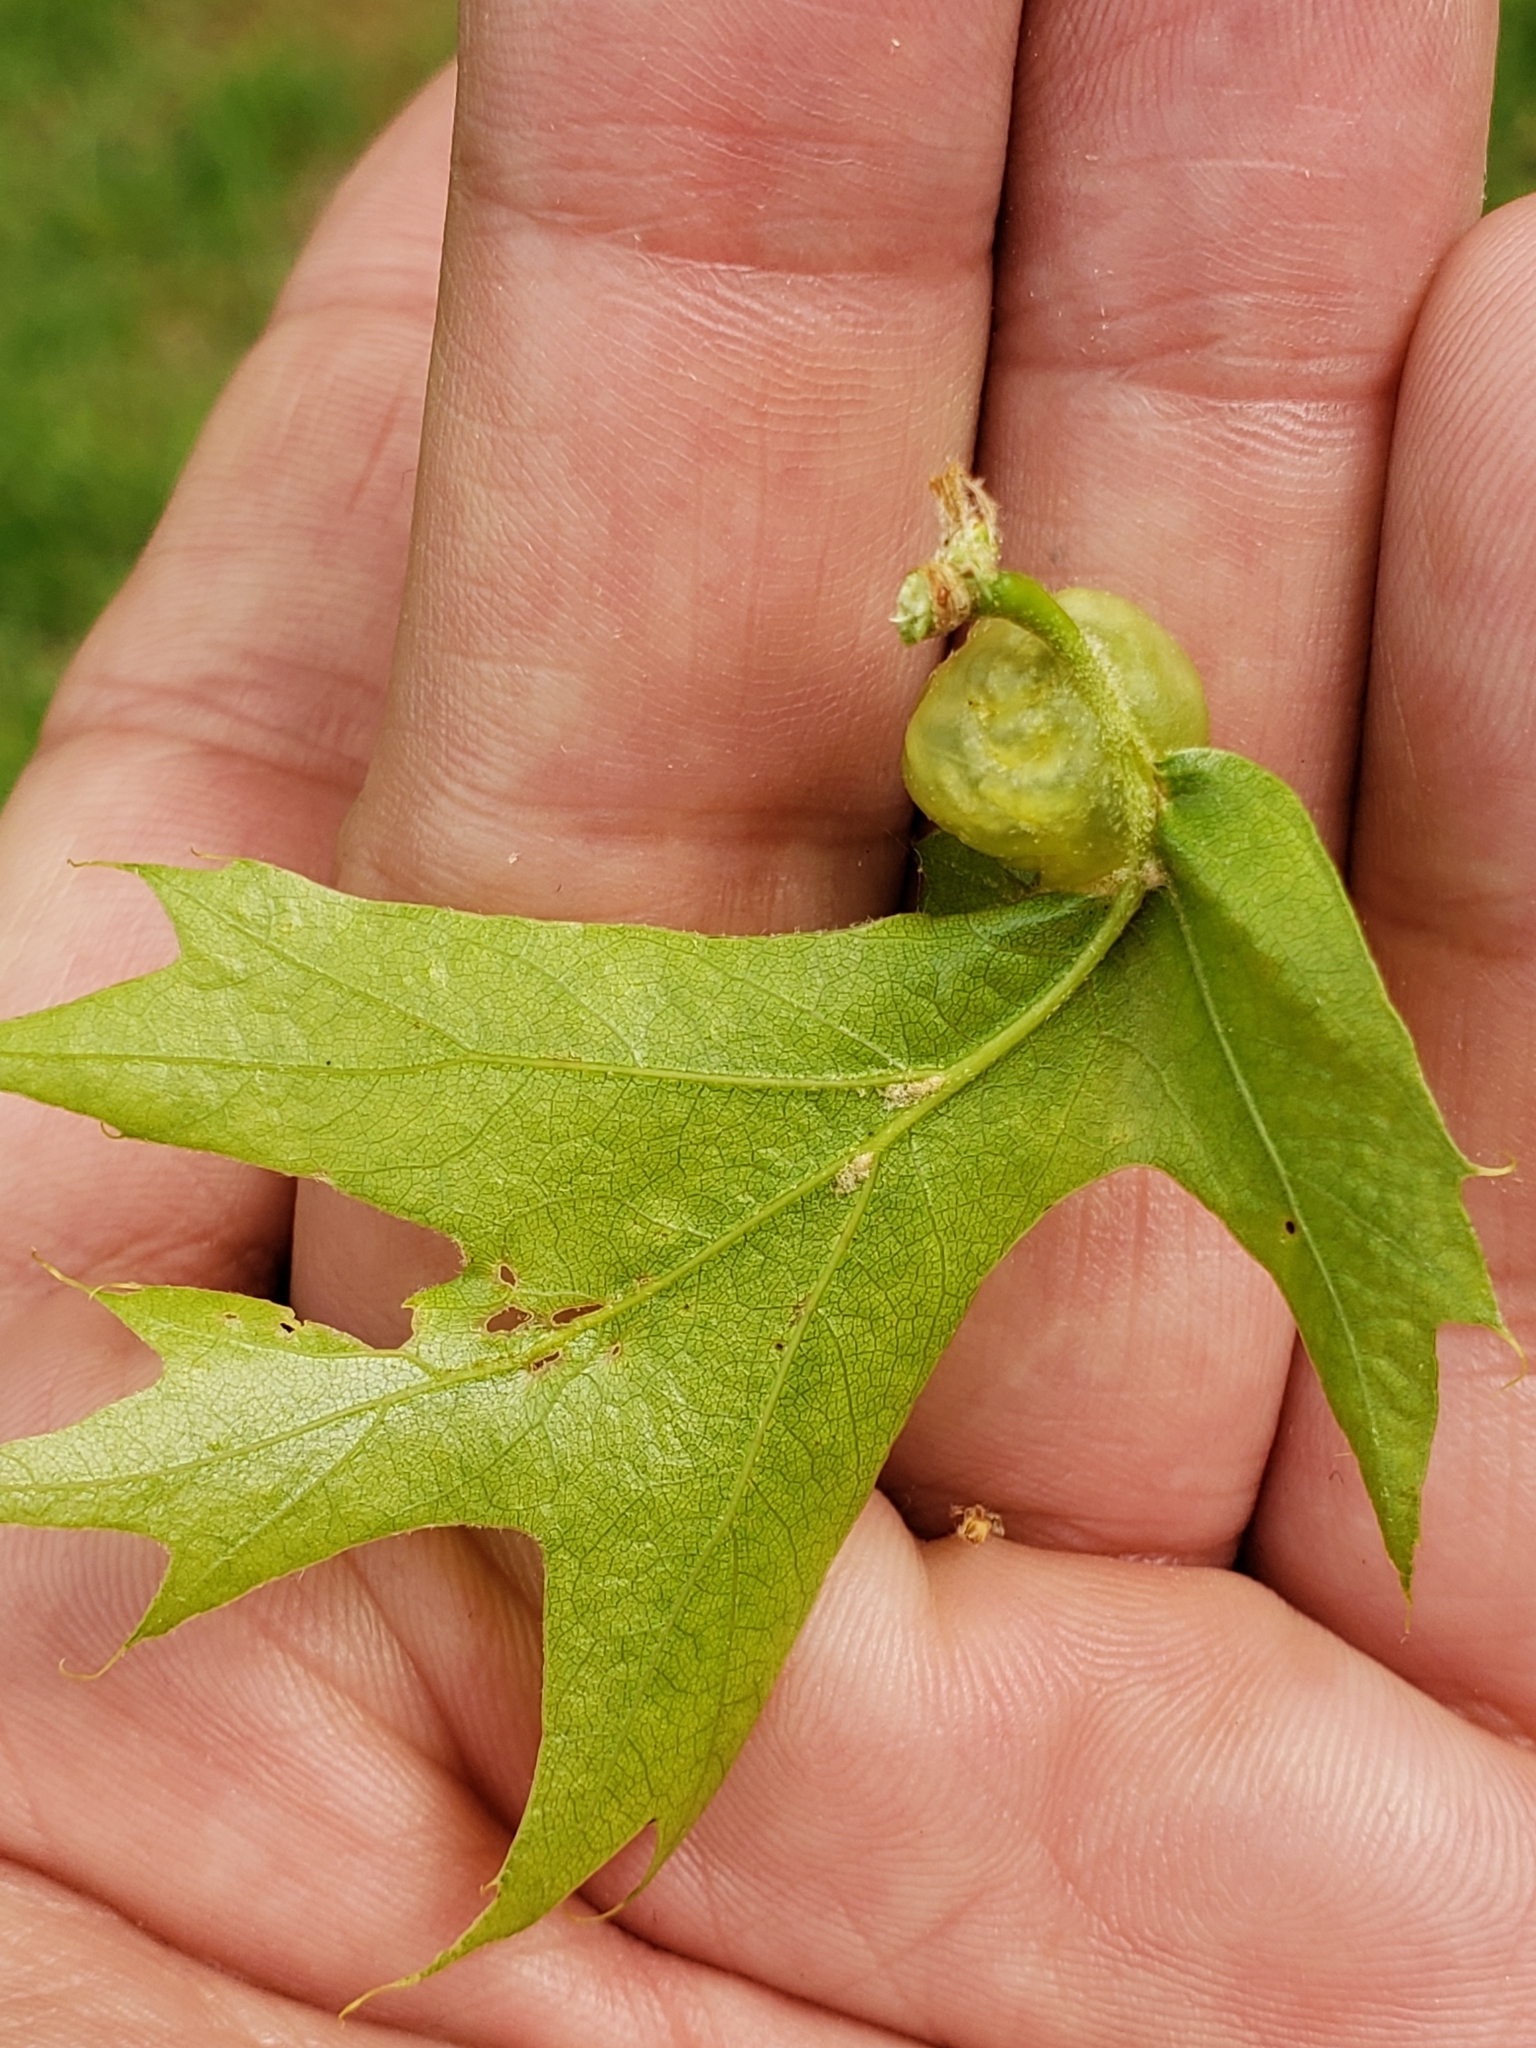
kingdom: Animalia
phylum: Arthropoda
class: Insecta
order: Hymenoptera
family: Cynipidae
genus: Dryocosmus
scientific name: Dryocosmus quercuspalustris
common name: Succulent oak gall wasp
